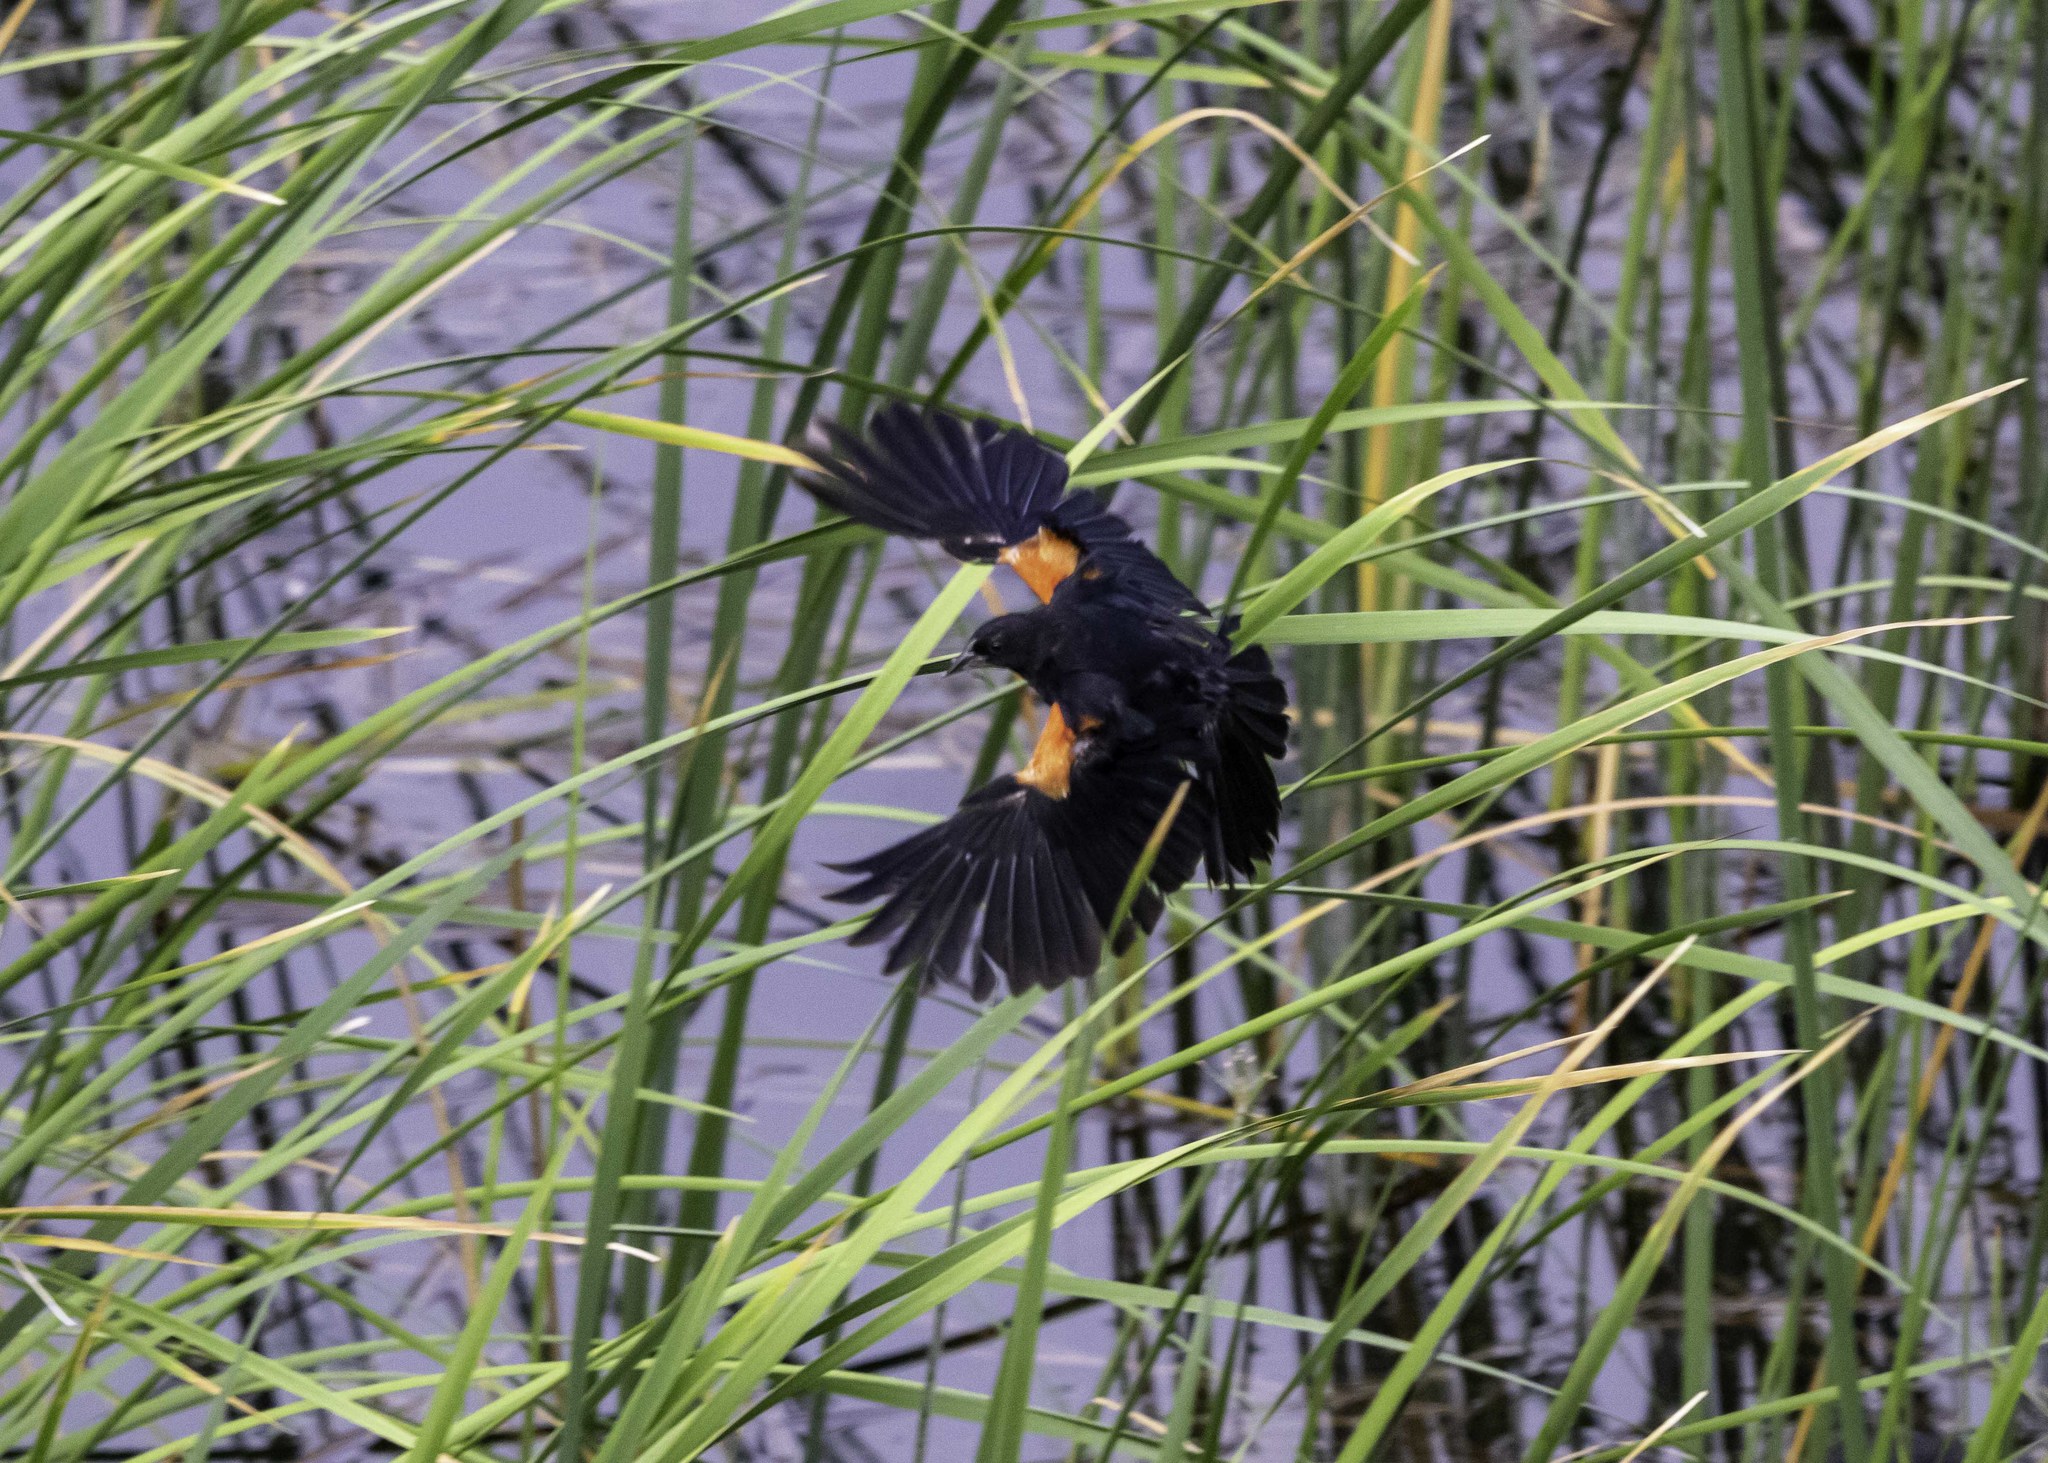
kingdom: Animalia
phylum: Chordata
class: Aves
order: Passeriformes
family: Icteridae
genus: Agelaius
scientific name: Agelaius phoeniceus
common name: Red-winged blackbird
